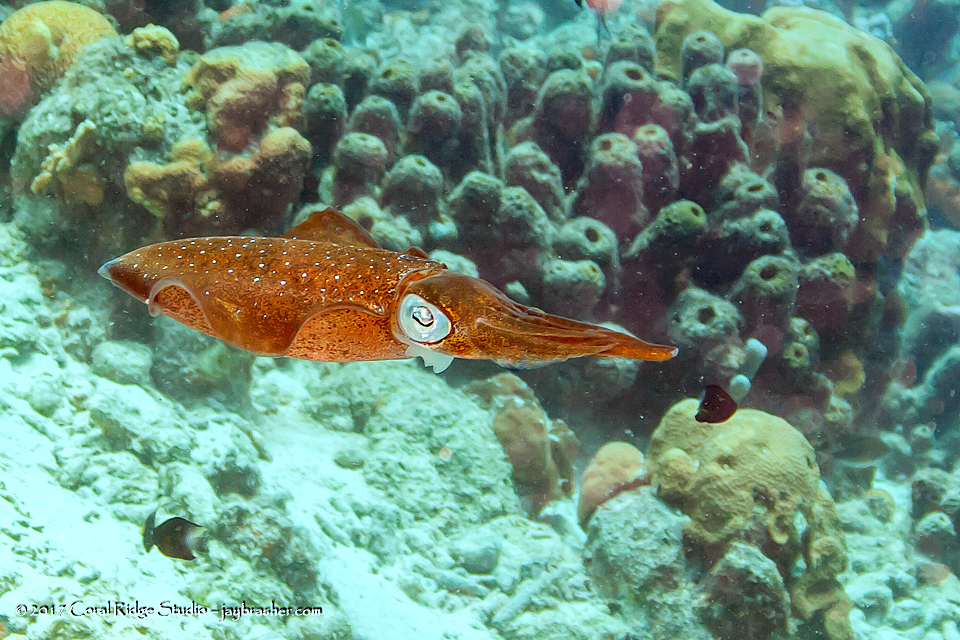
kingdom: Animalia
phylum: Mollusca
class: Cephalopoda
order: Myopsida
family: Loliginidae
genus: Sepioteuthis
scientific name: Sepioteuthis sepioidea
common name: Caribbean reef squid
